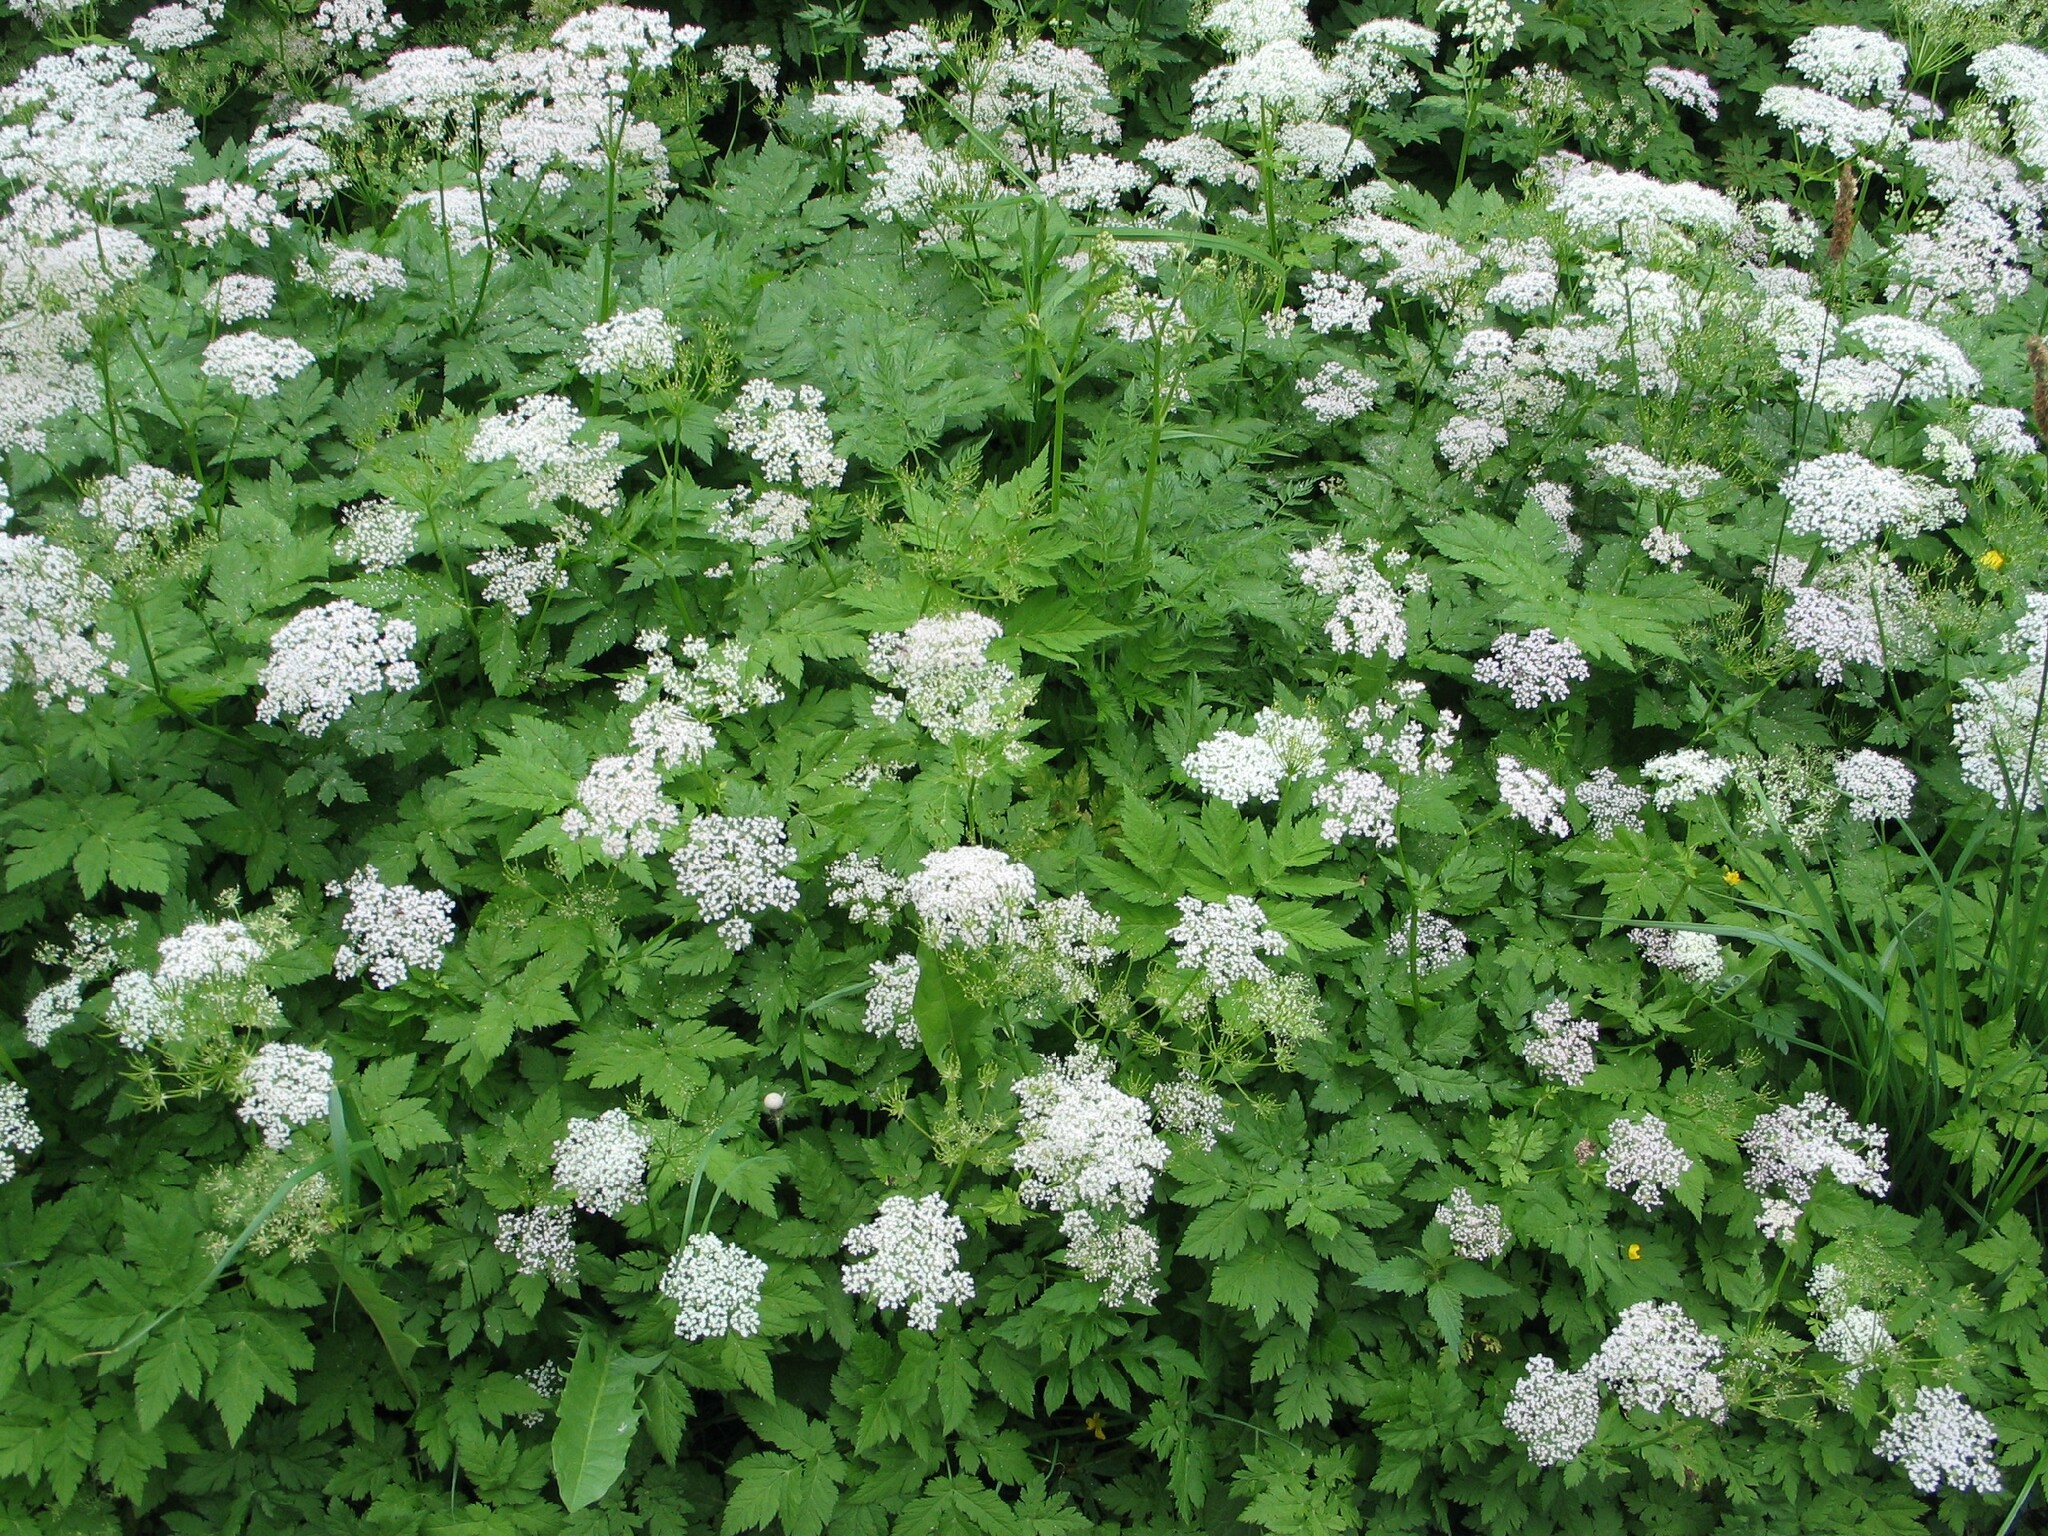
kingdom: Plantae
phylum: Tracheophyta
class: Magnoliopsida
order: Apiales
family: Apiaceae
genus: Chaerophyllum
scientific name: Chaerophyllum hirsutum
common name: Hairy chervil
